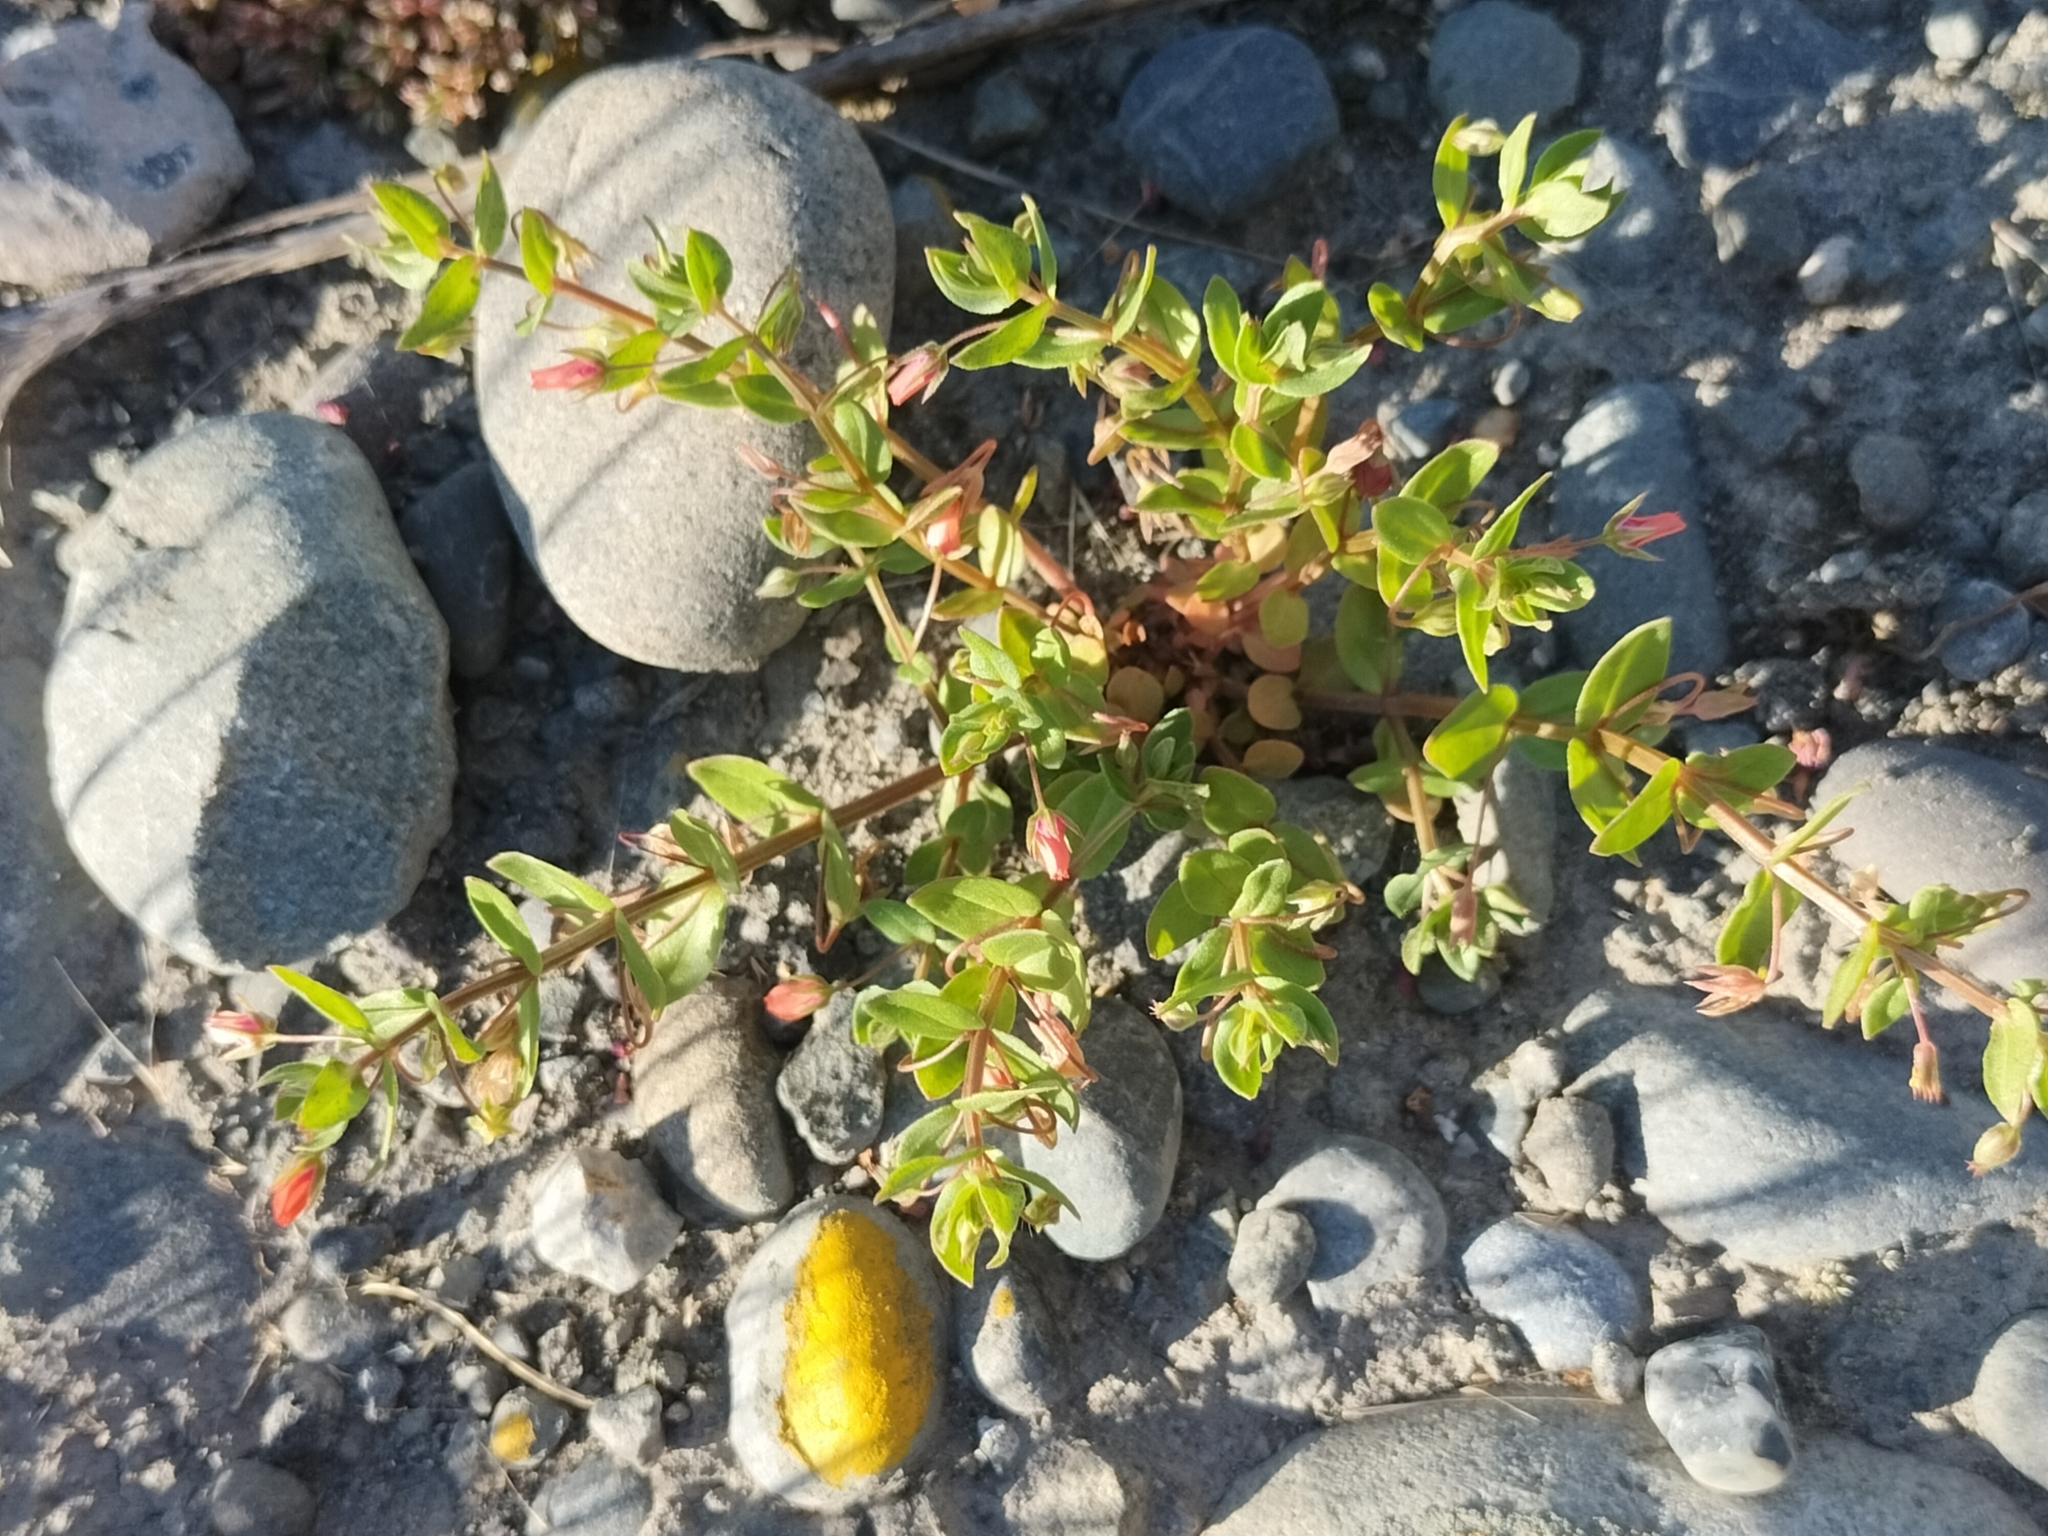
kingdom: Plantae
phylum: Tracheophyta
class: Magnoliopsida
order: Ericales
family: Primulaceae
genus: Lysimachia
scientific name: Lysimachia arvensis
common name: Scarlet pimpernel
